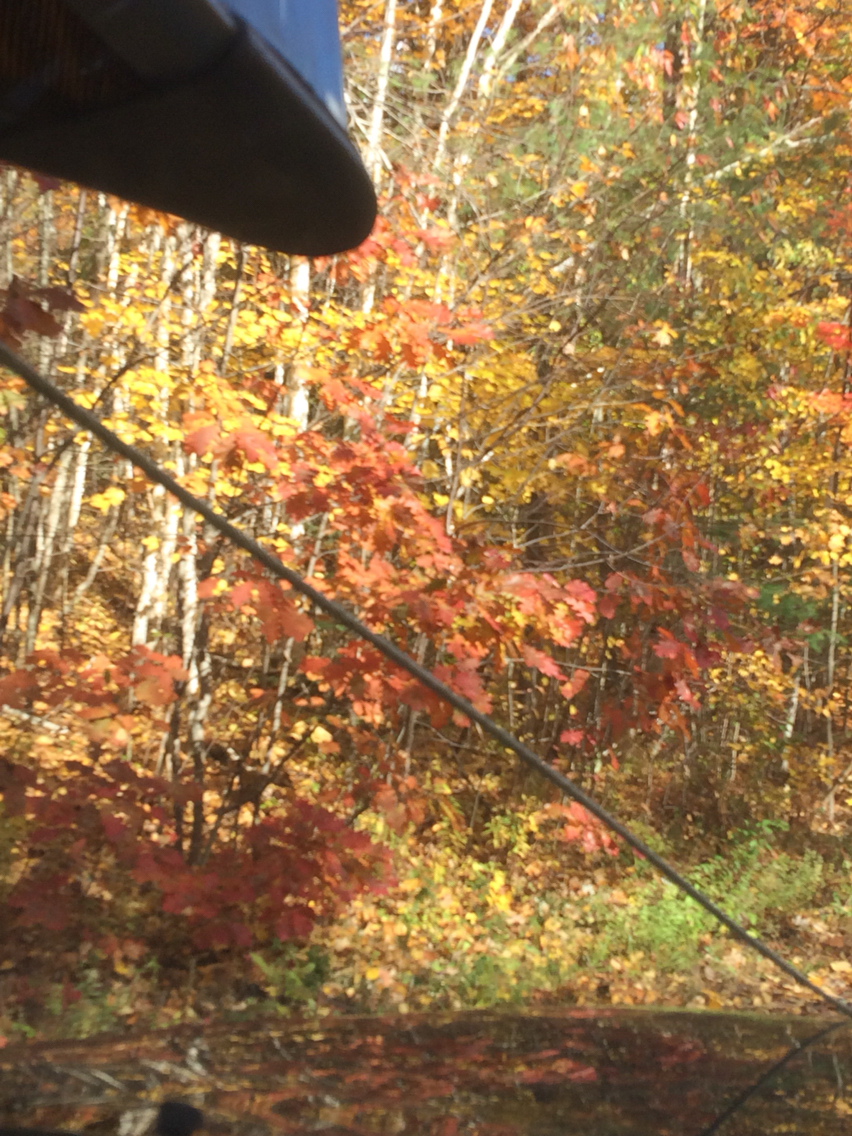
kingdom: Plantae
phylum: Tracheophyta
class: Magnoliopsida
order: Fagales
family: Fagaceae
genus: Quercus
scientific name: Quercus rubra
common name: Red oak
